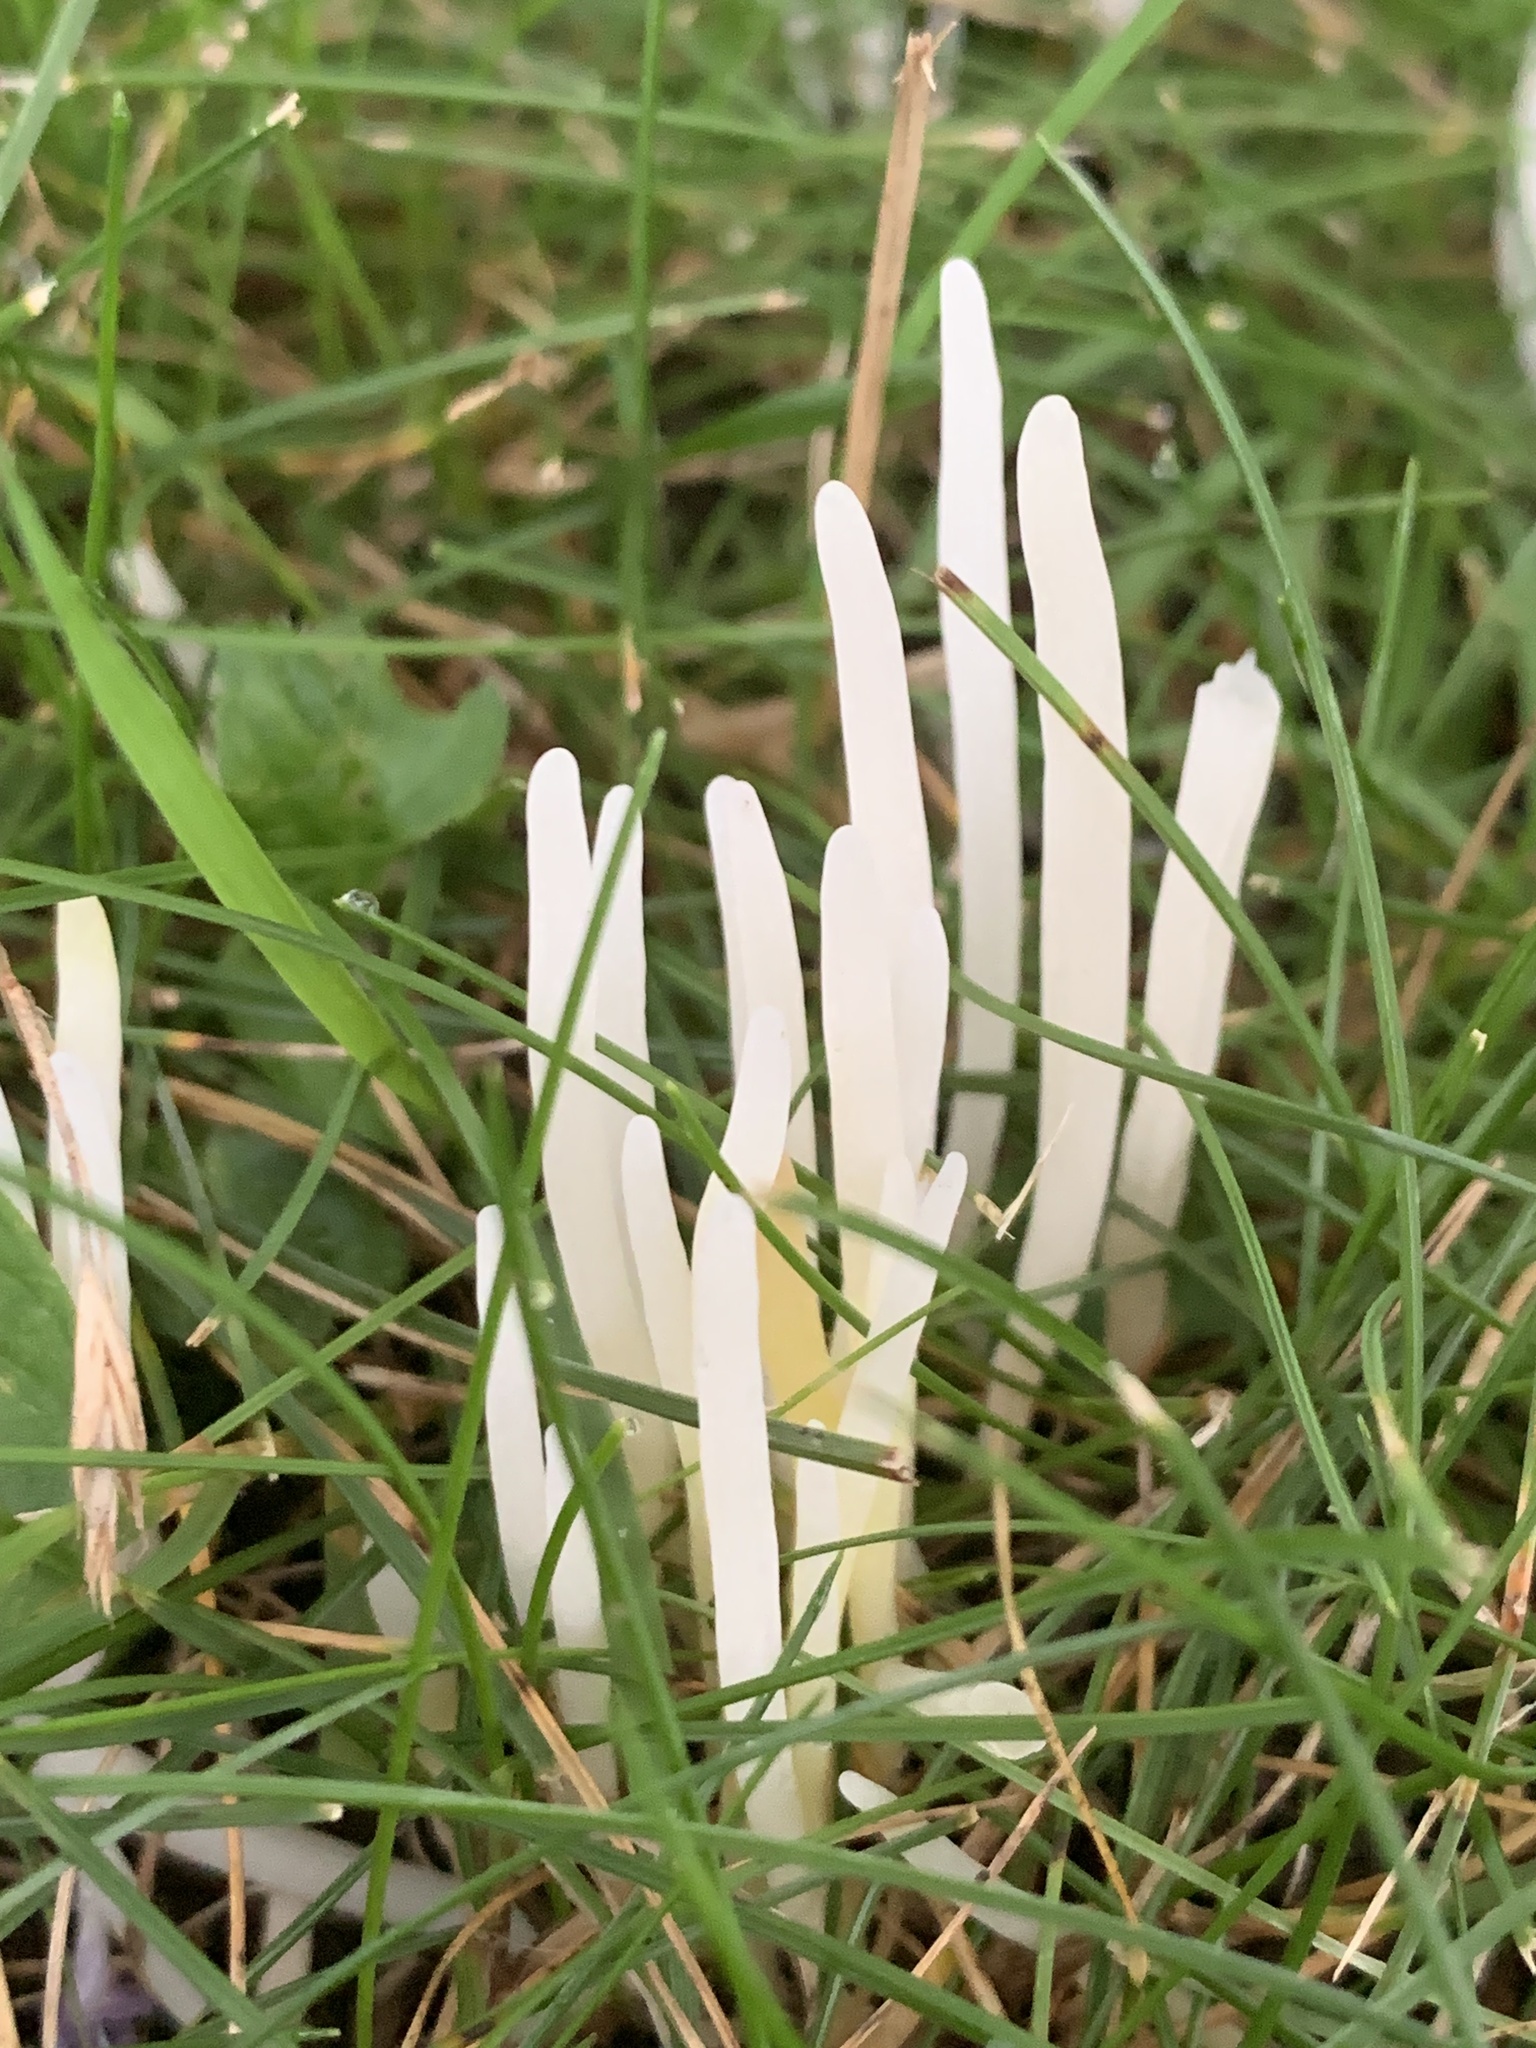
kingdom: Fungi
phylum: Basidiomycota
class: Agaricomycetes
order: Agaricales
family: Clavariaceae
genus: Clavaria
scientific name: Clavaria fragilis
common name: White spindles
